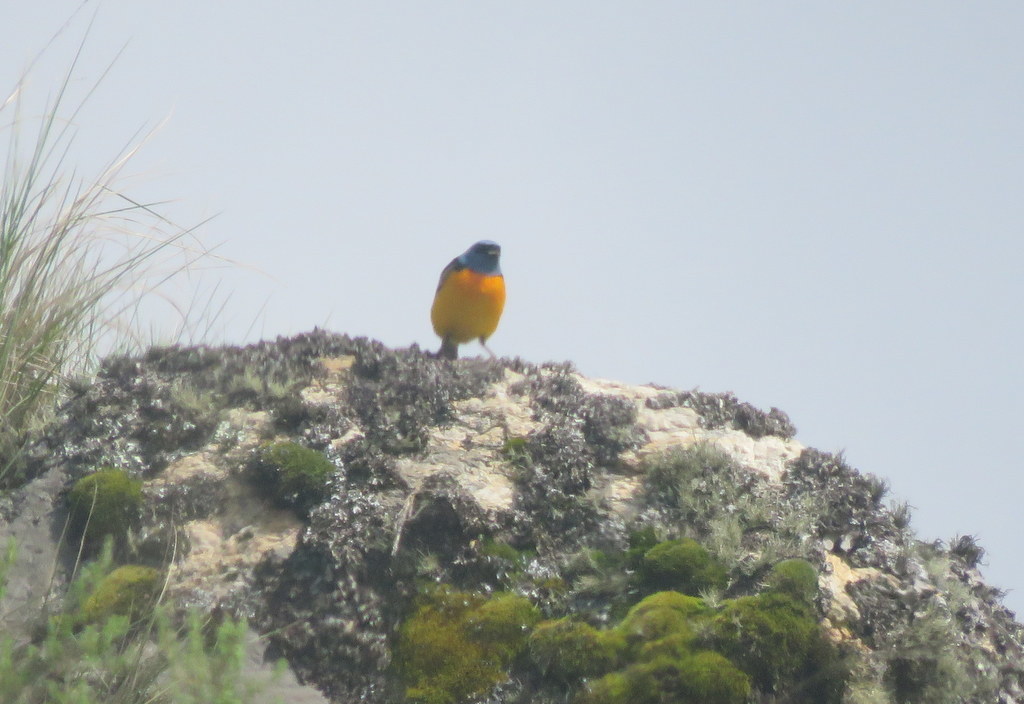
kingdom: Animalia
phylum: Chordata
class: Aves
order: Passeriformes
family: Thraupidae
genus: Rauenia
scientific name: Rauenia bonariensis
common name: Blue-and-yellow tanager
